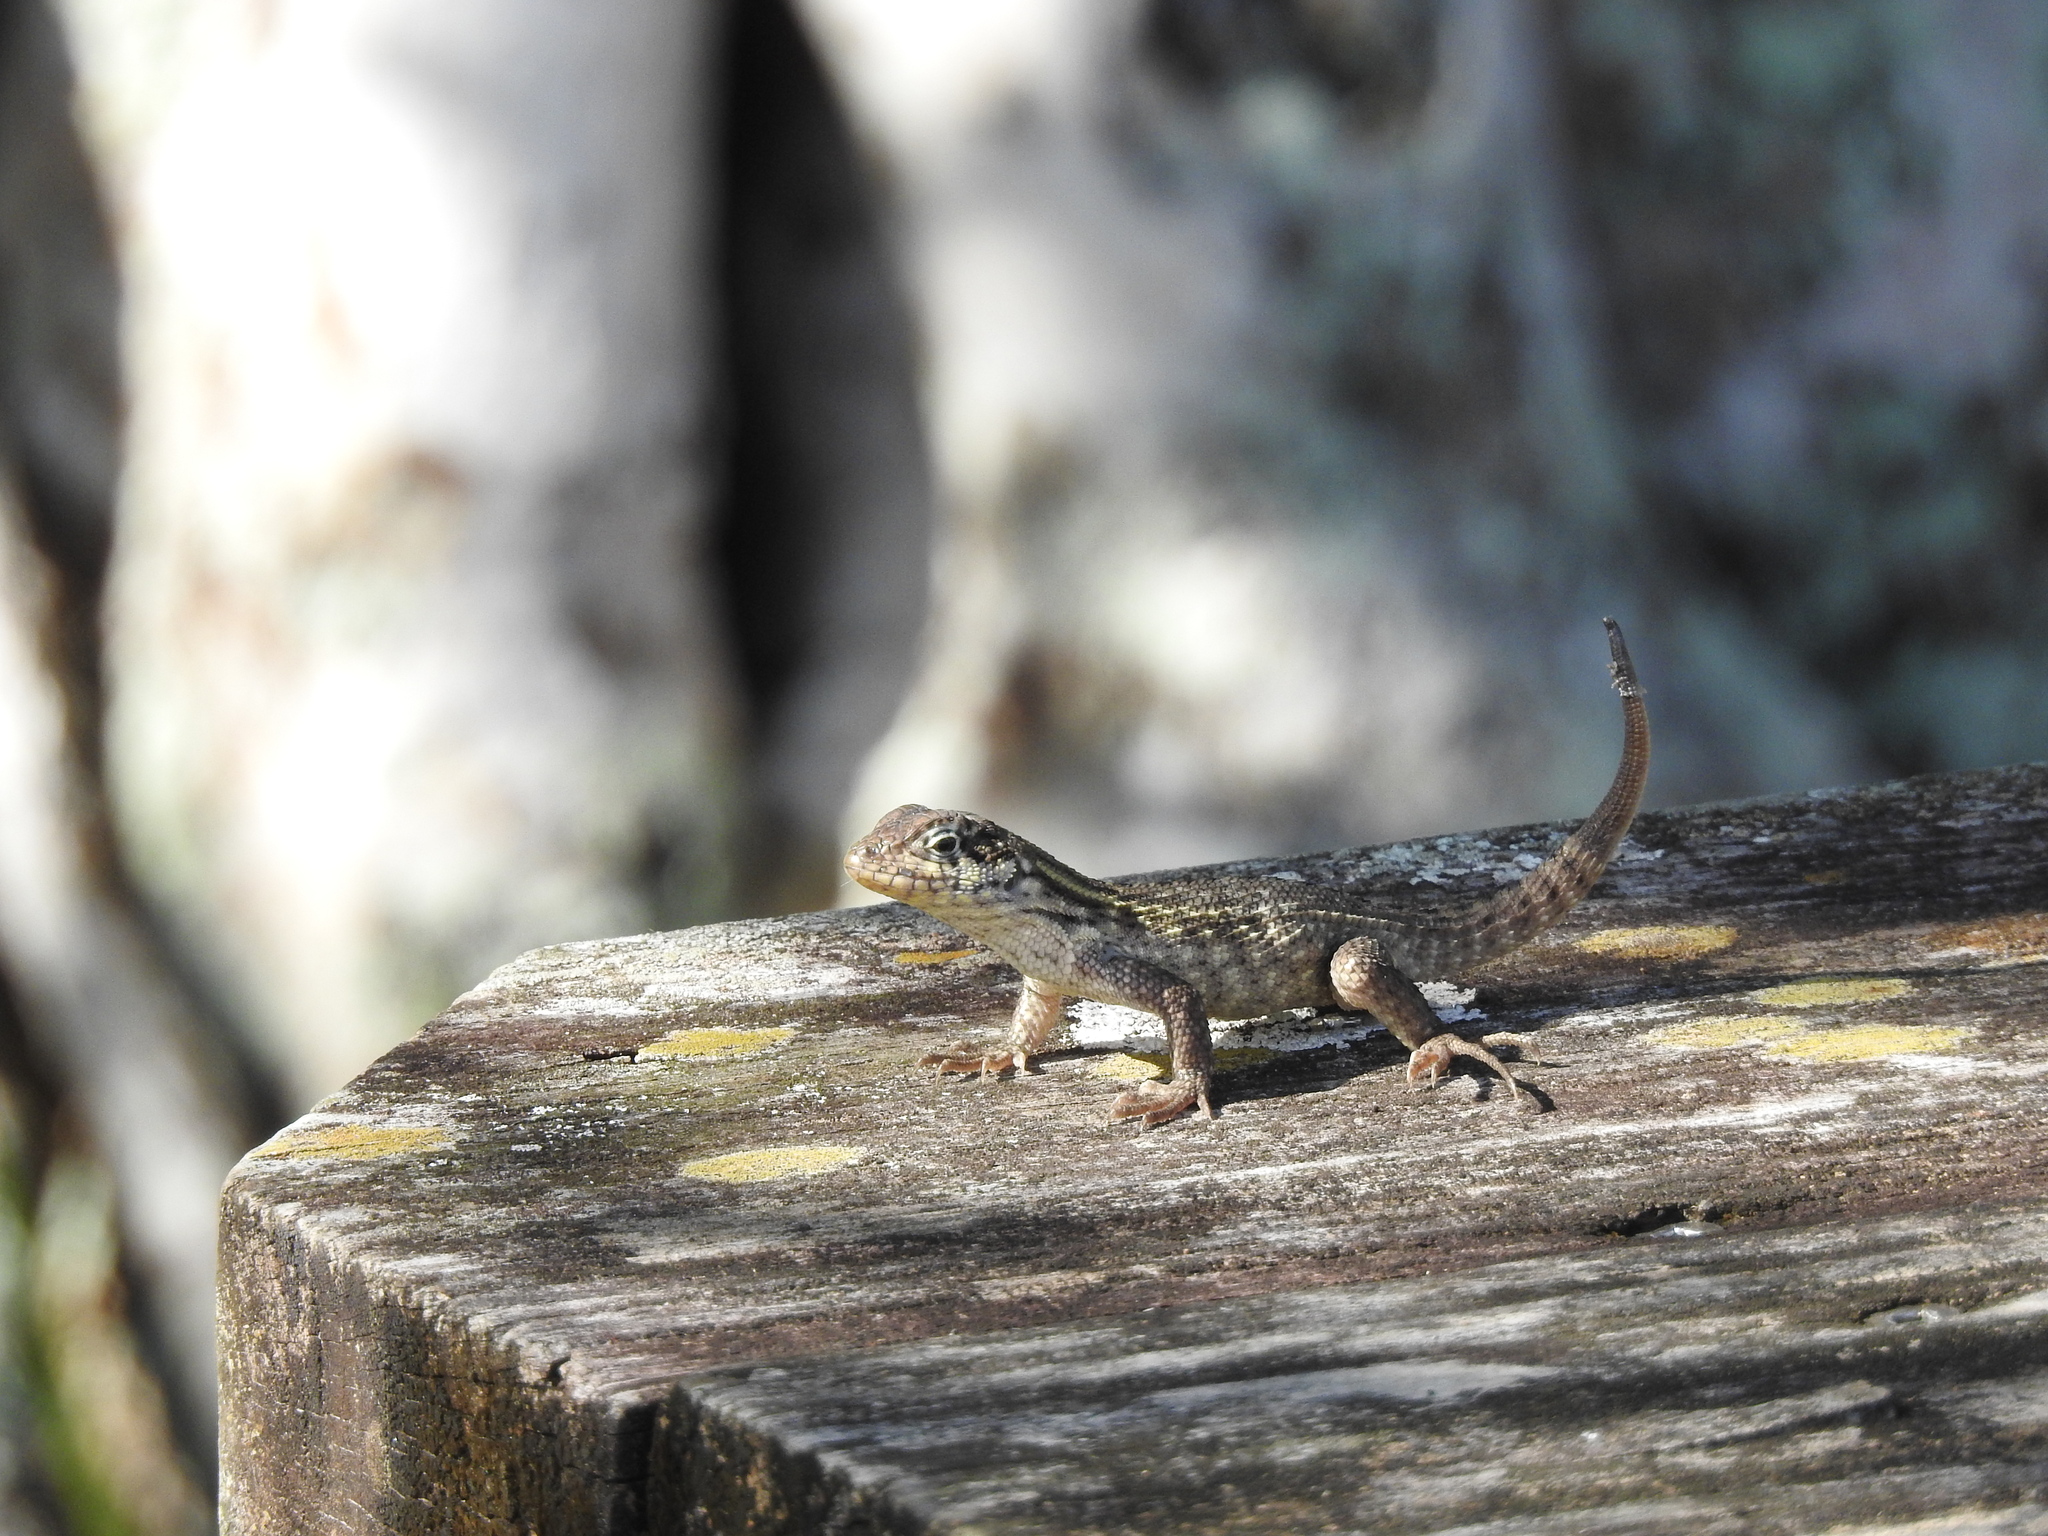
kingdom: Animalia
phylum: Chordata
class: Squamata
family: Leiocephalidae
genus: Leiocephalus
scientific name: Leiocephalus carinatus
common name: Northern curly-tailed lizard
